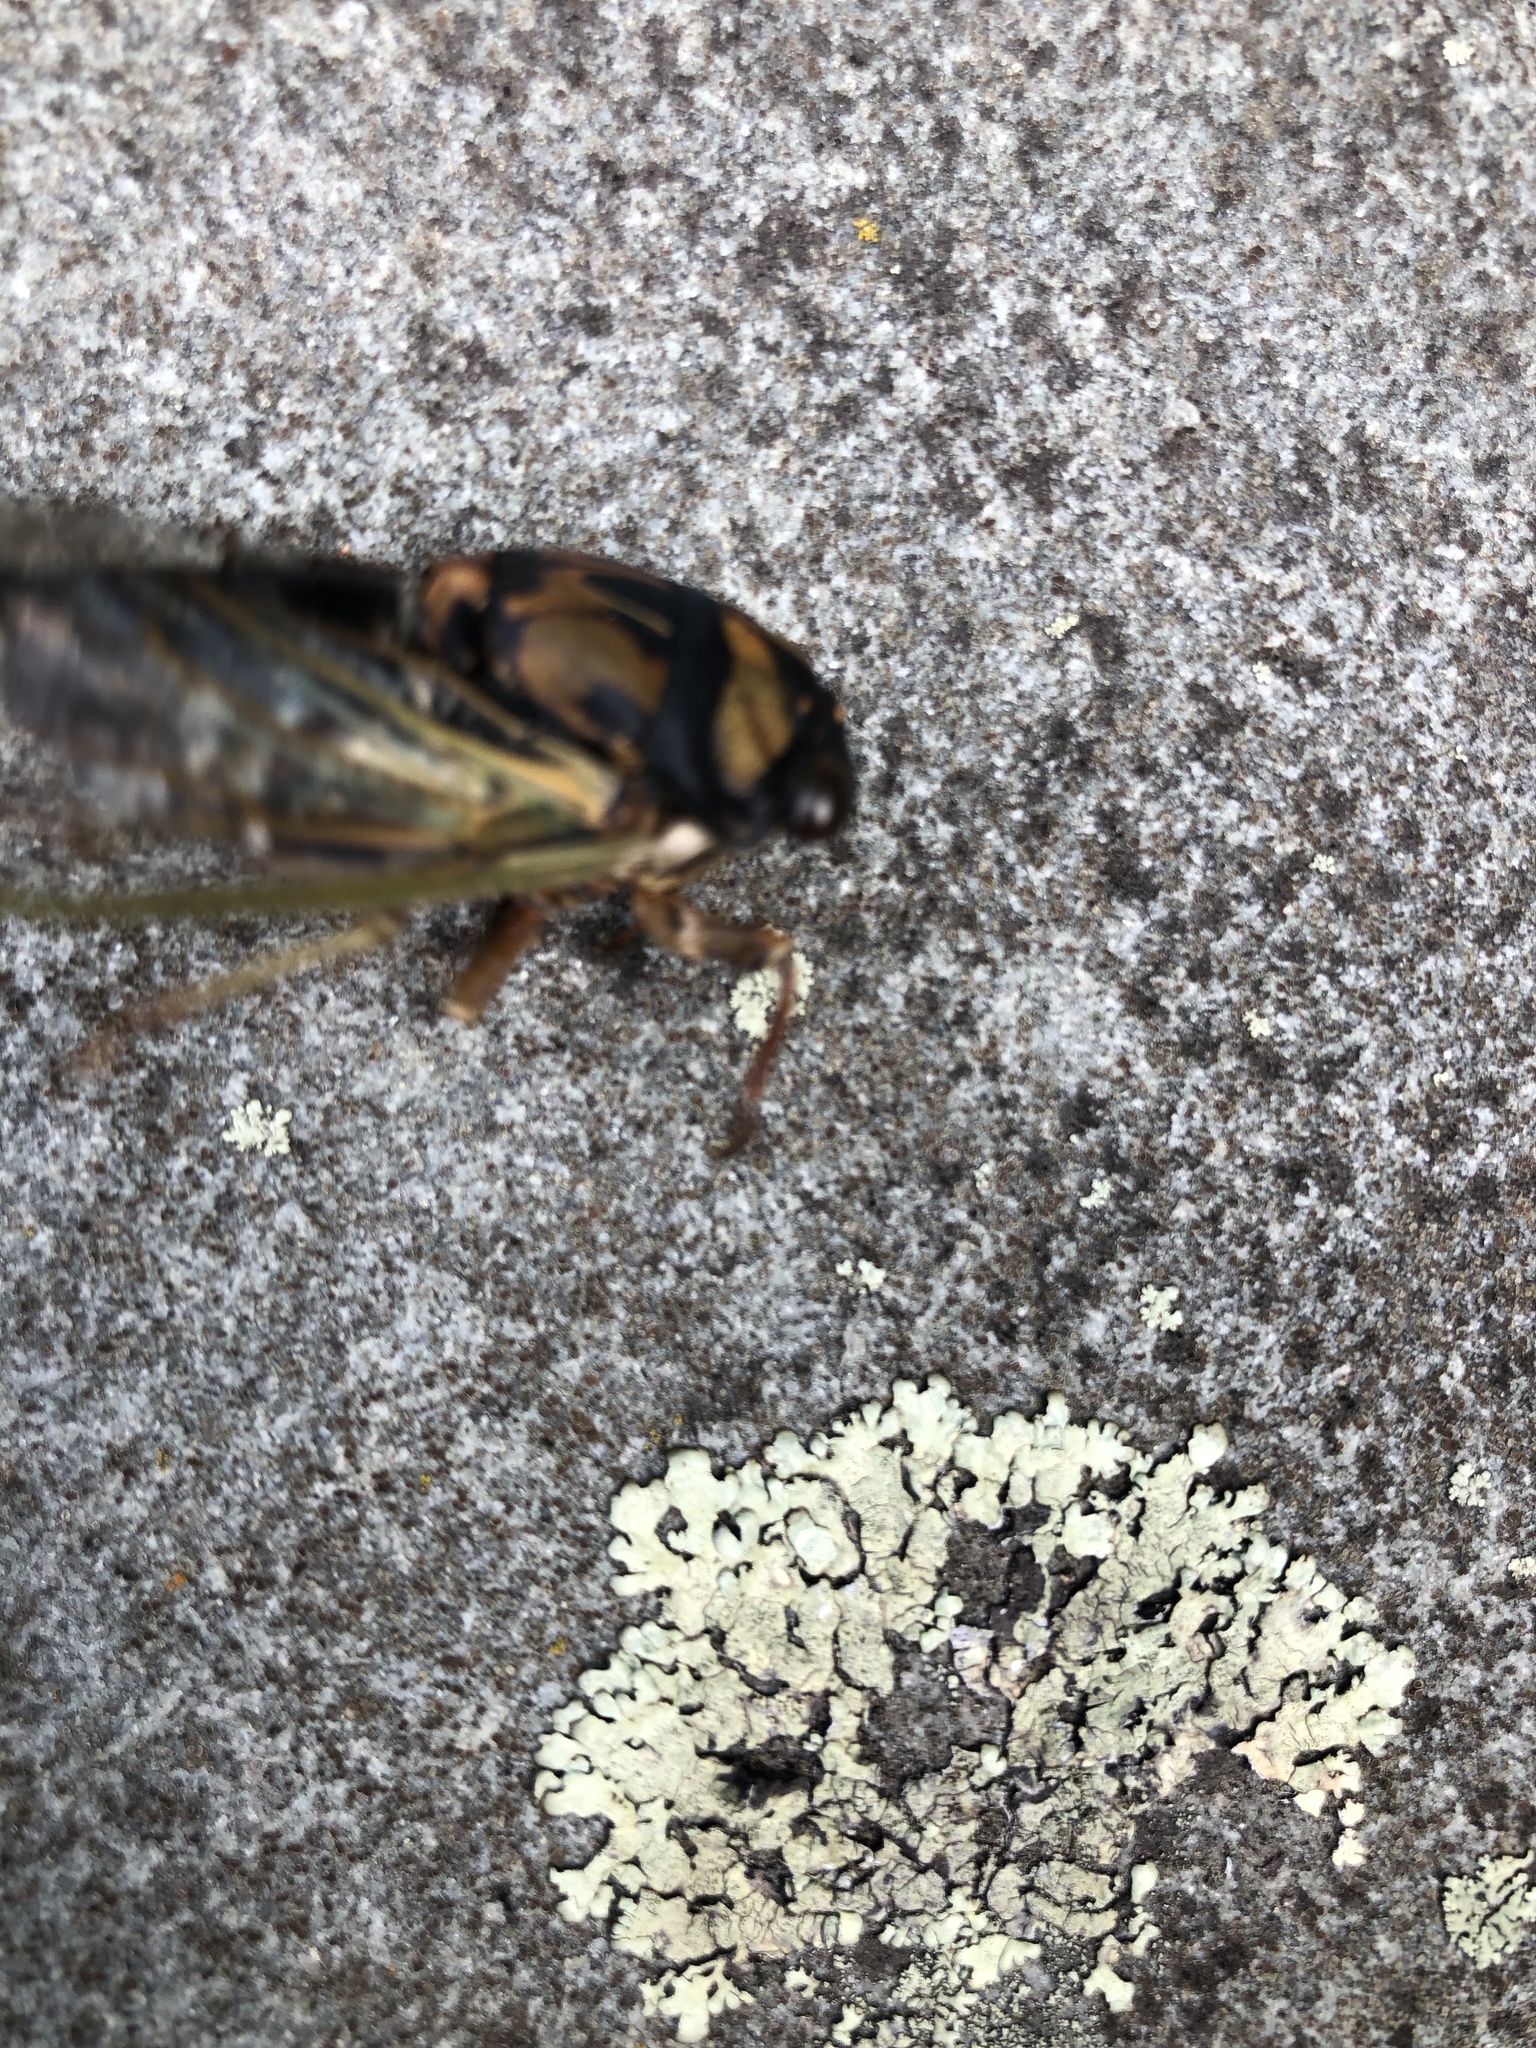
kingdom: Animalia
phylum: Arthropoda
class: Insecta
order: Hemiptera
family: Cicadidae
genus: Neotibicen
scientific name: Neotibicen lyricen
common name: Lyric cicada
